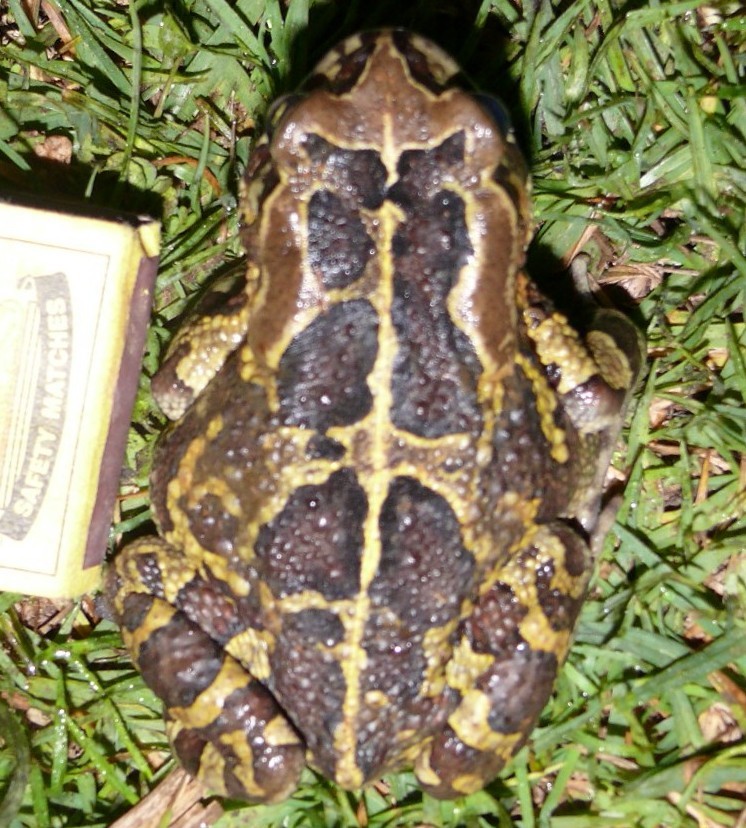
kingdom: Animalia
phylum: Chordata
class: Amphibia
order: Anura
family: Bufonidae
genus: Sclerophrys
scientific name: Sclerophrys pantherina
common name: Panther toad
